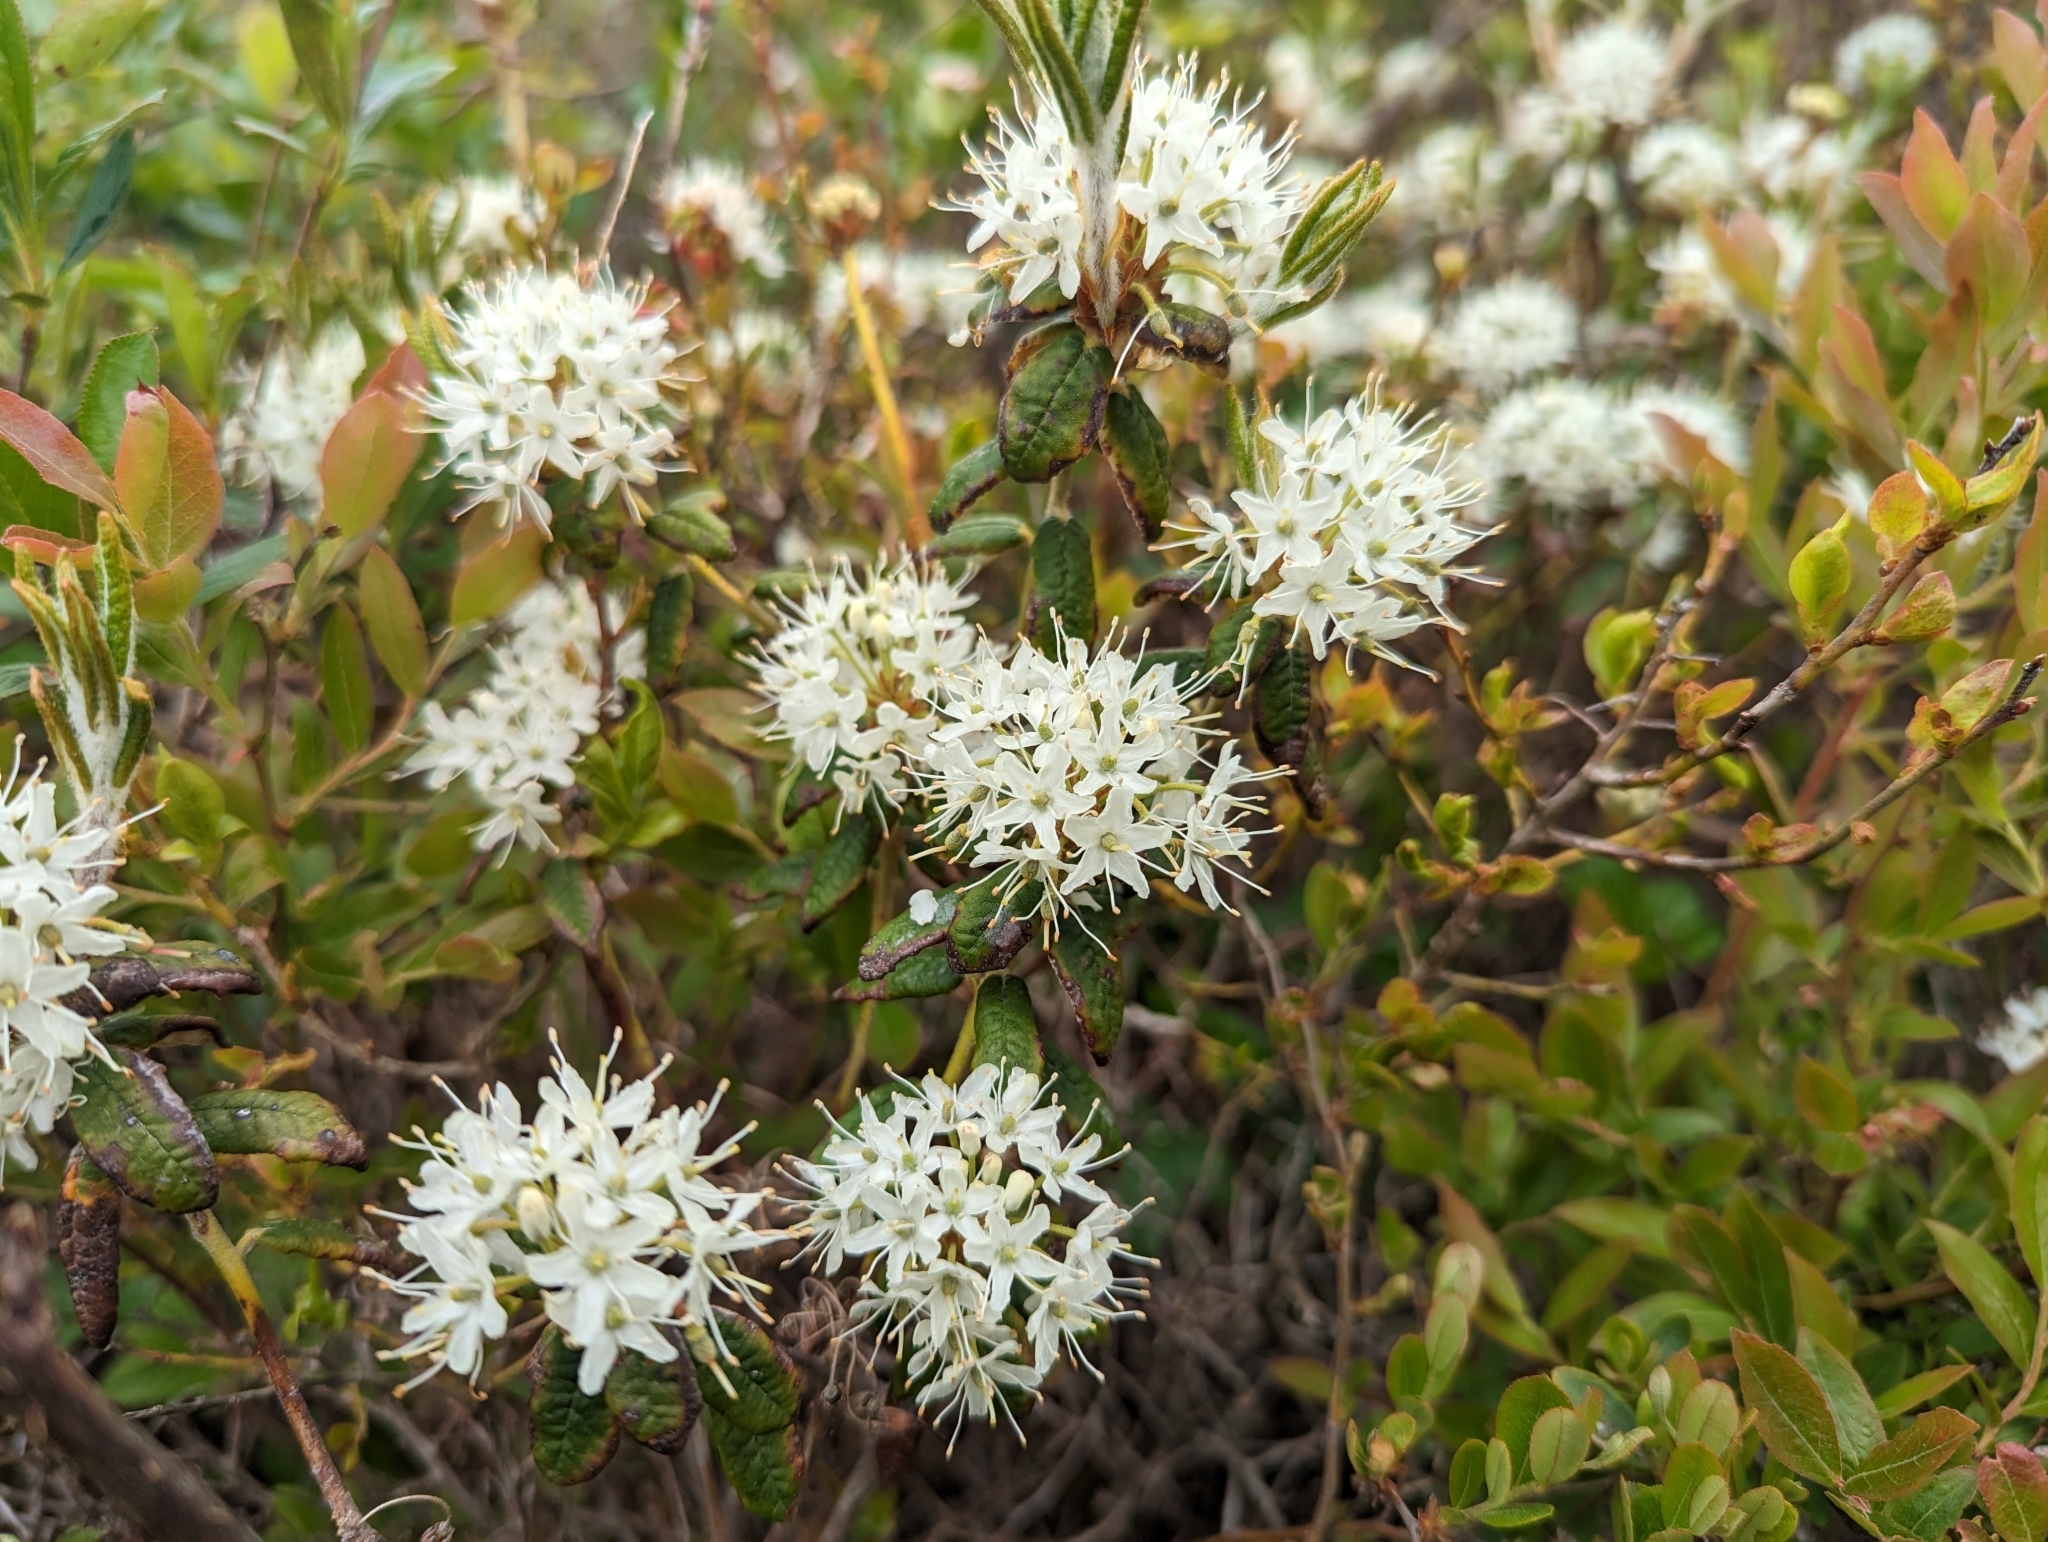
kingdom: Plantae
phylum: Tracheophyta
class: Magnoliopsida
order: Ericales
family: Ericaceae
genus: Rhododendron
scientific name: Rhododendron groenlandicum
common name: Bog labrador tea
